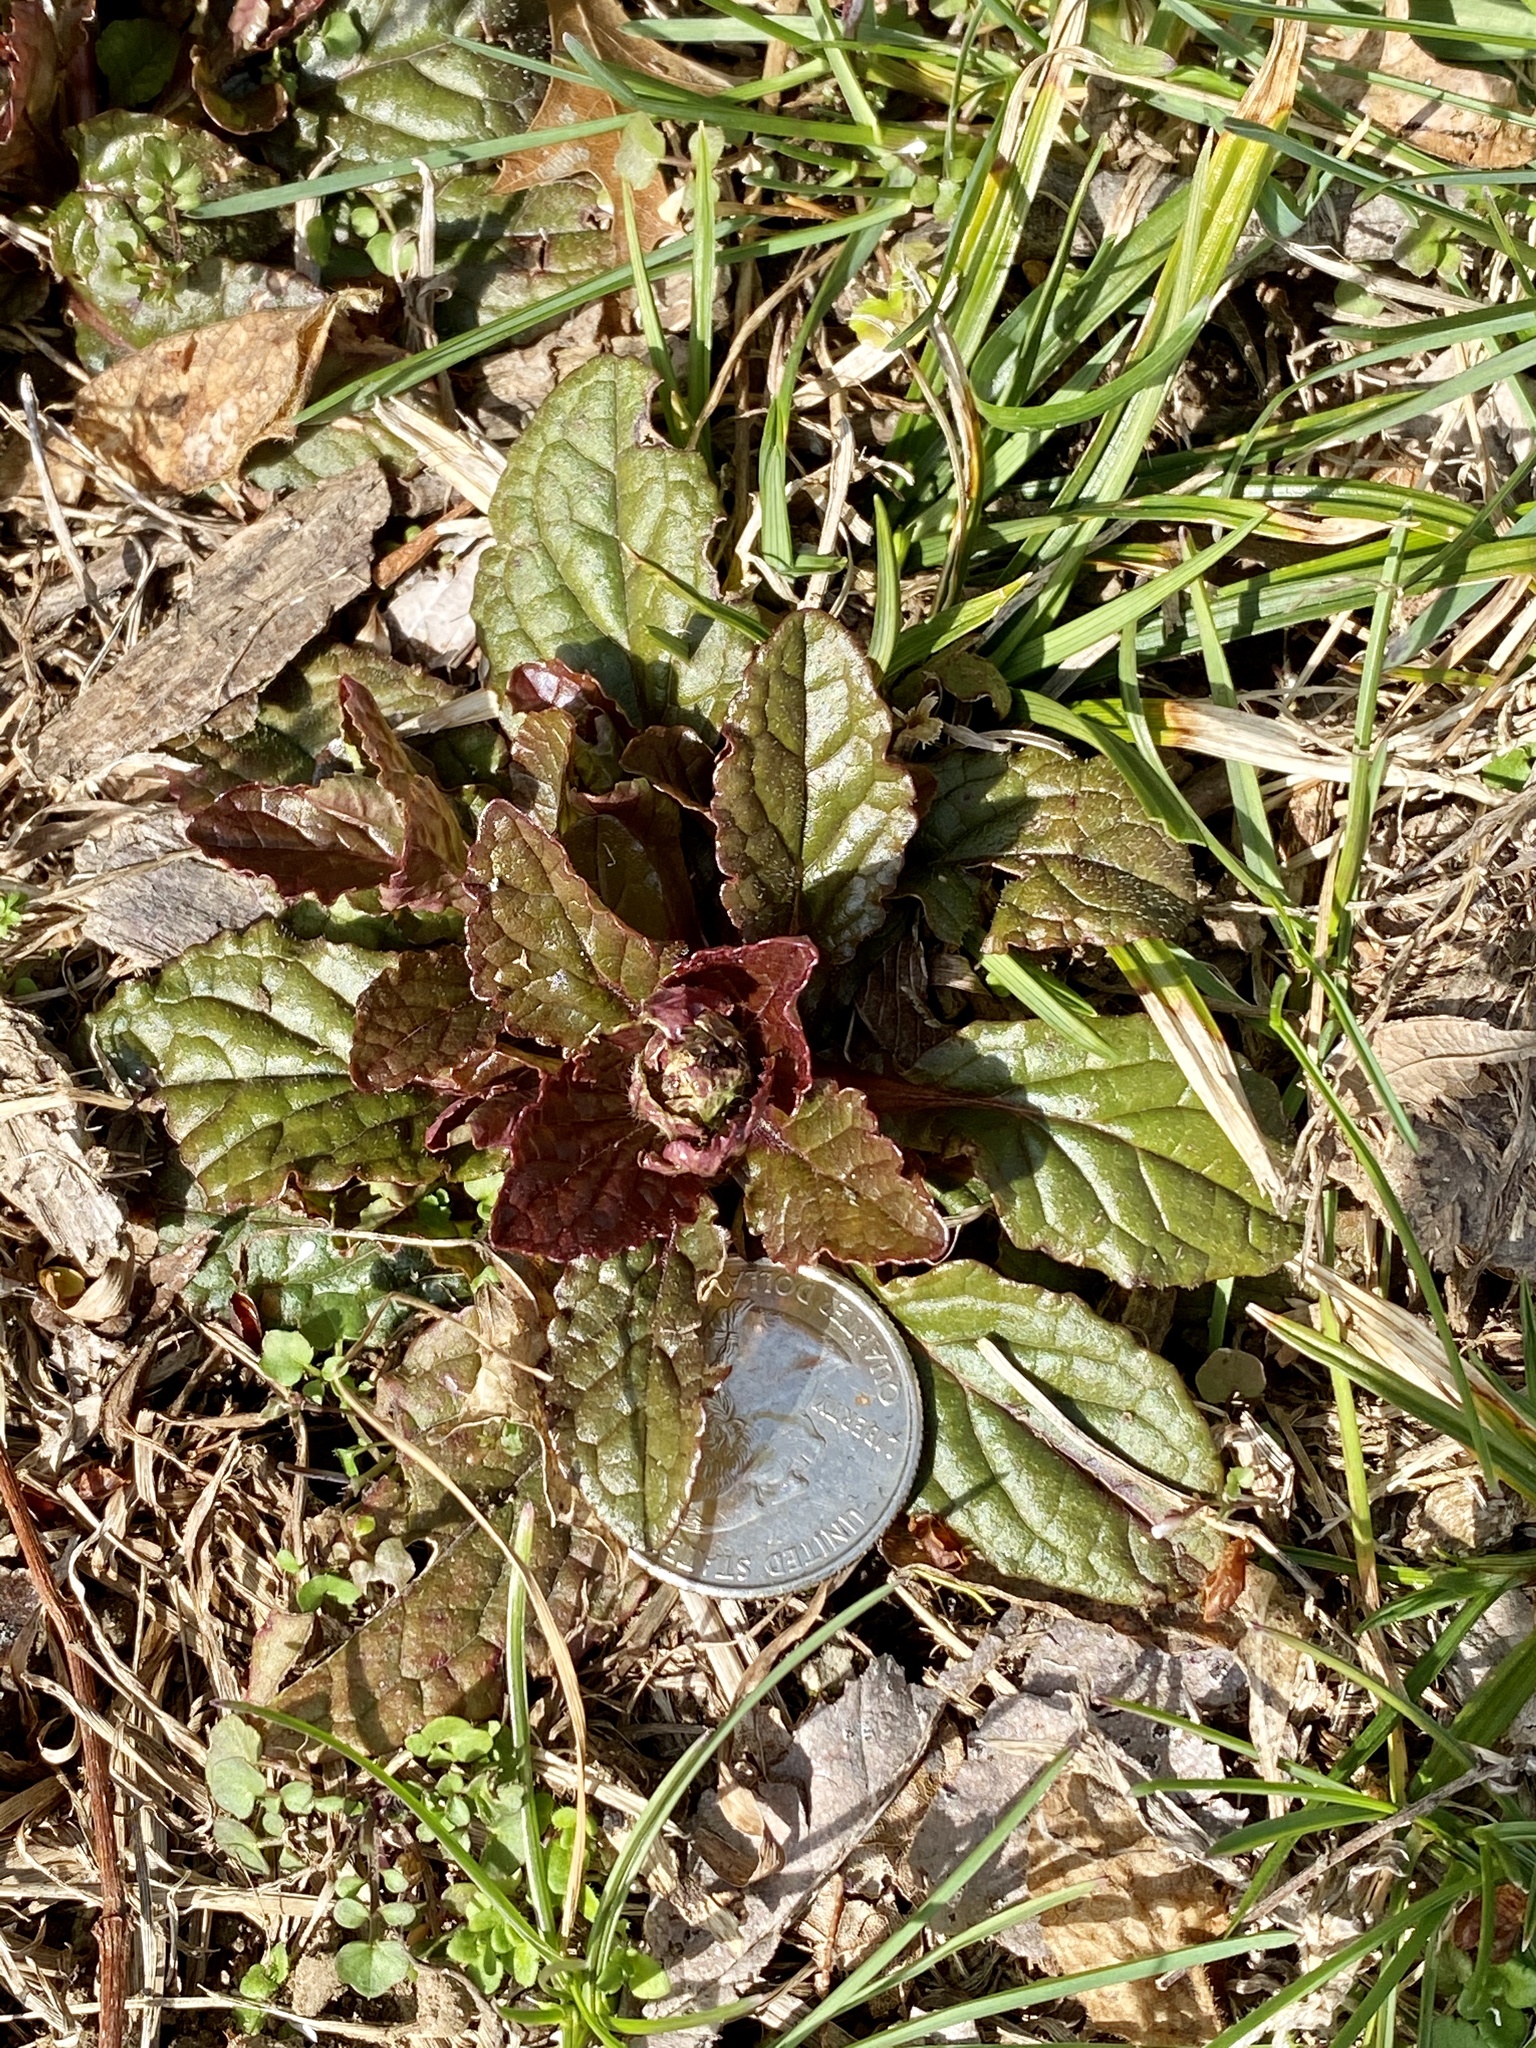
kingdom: Plantae
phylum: Tracheophyta
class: Magnoliopsida
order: Lamiales
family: Lamiaceae
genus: Ajuga
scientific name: Ajuga reptans
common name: Bugle
